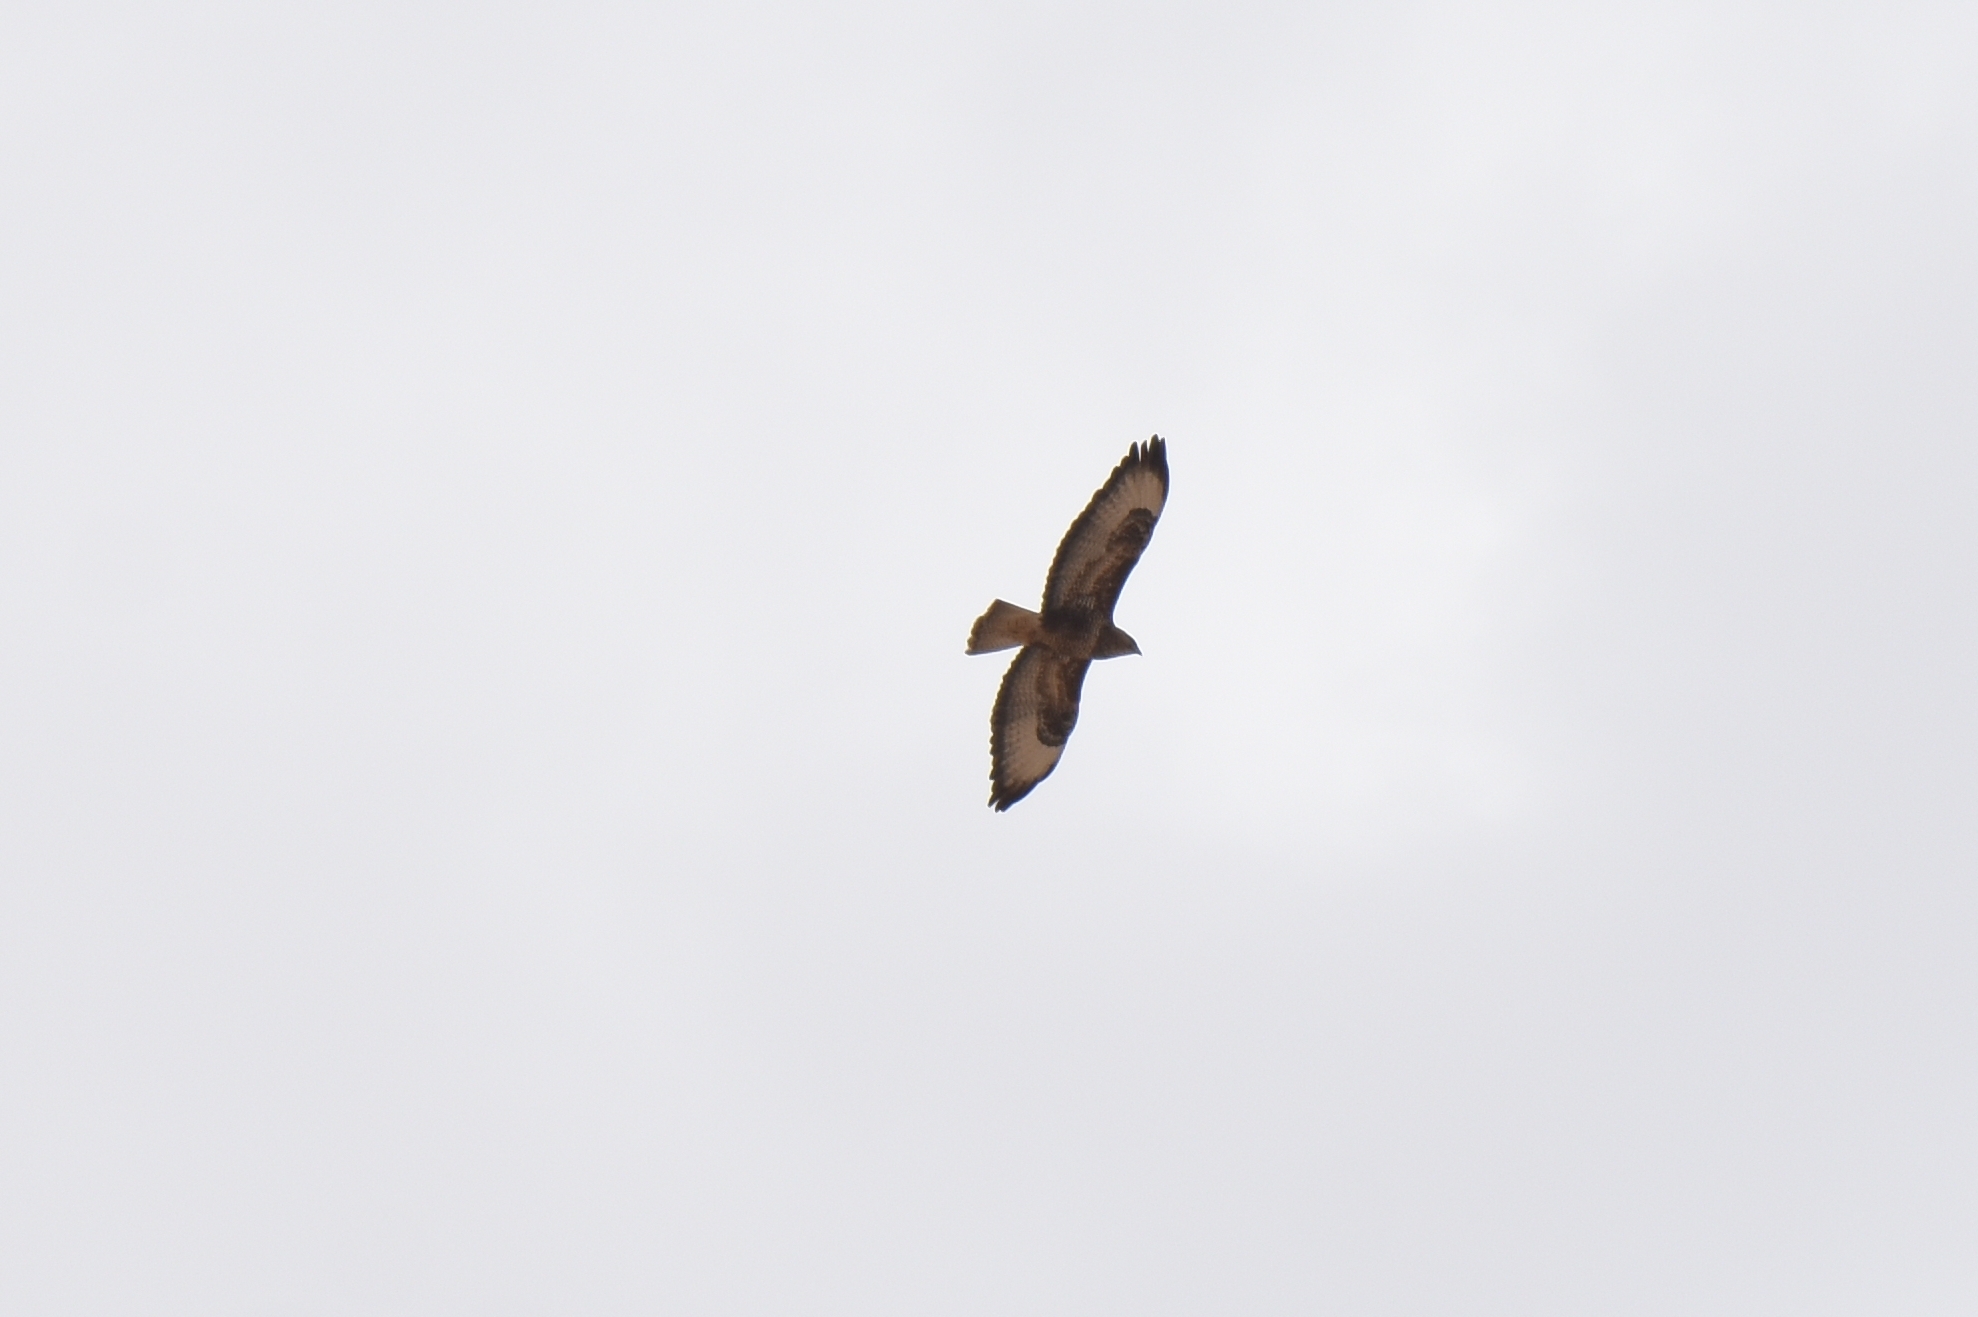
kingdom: Animalia
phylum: Chordata
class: Aves
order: Accipitriformes
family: Accipitridae
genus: Buteo
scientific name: Buteo buteo
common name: Common buzzard
